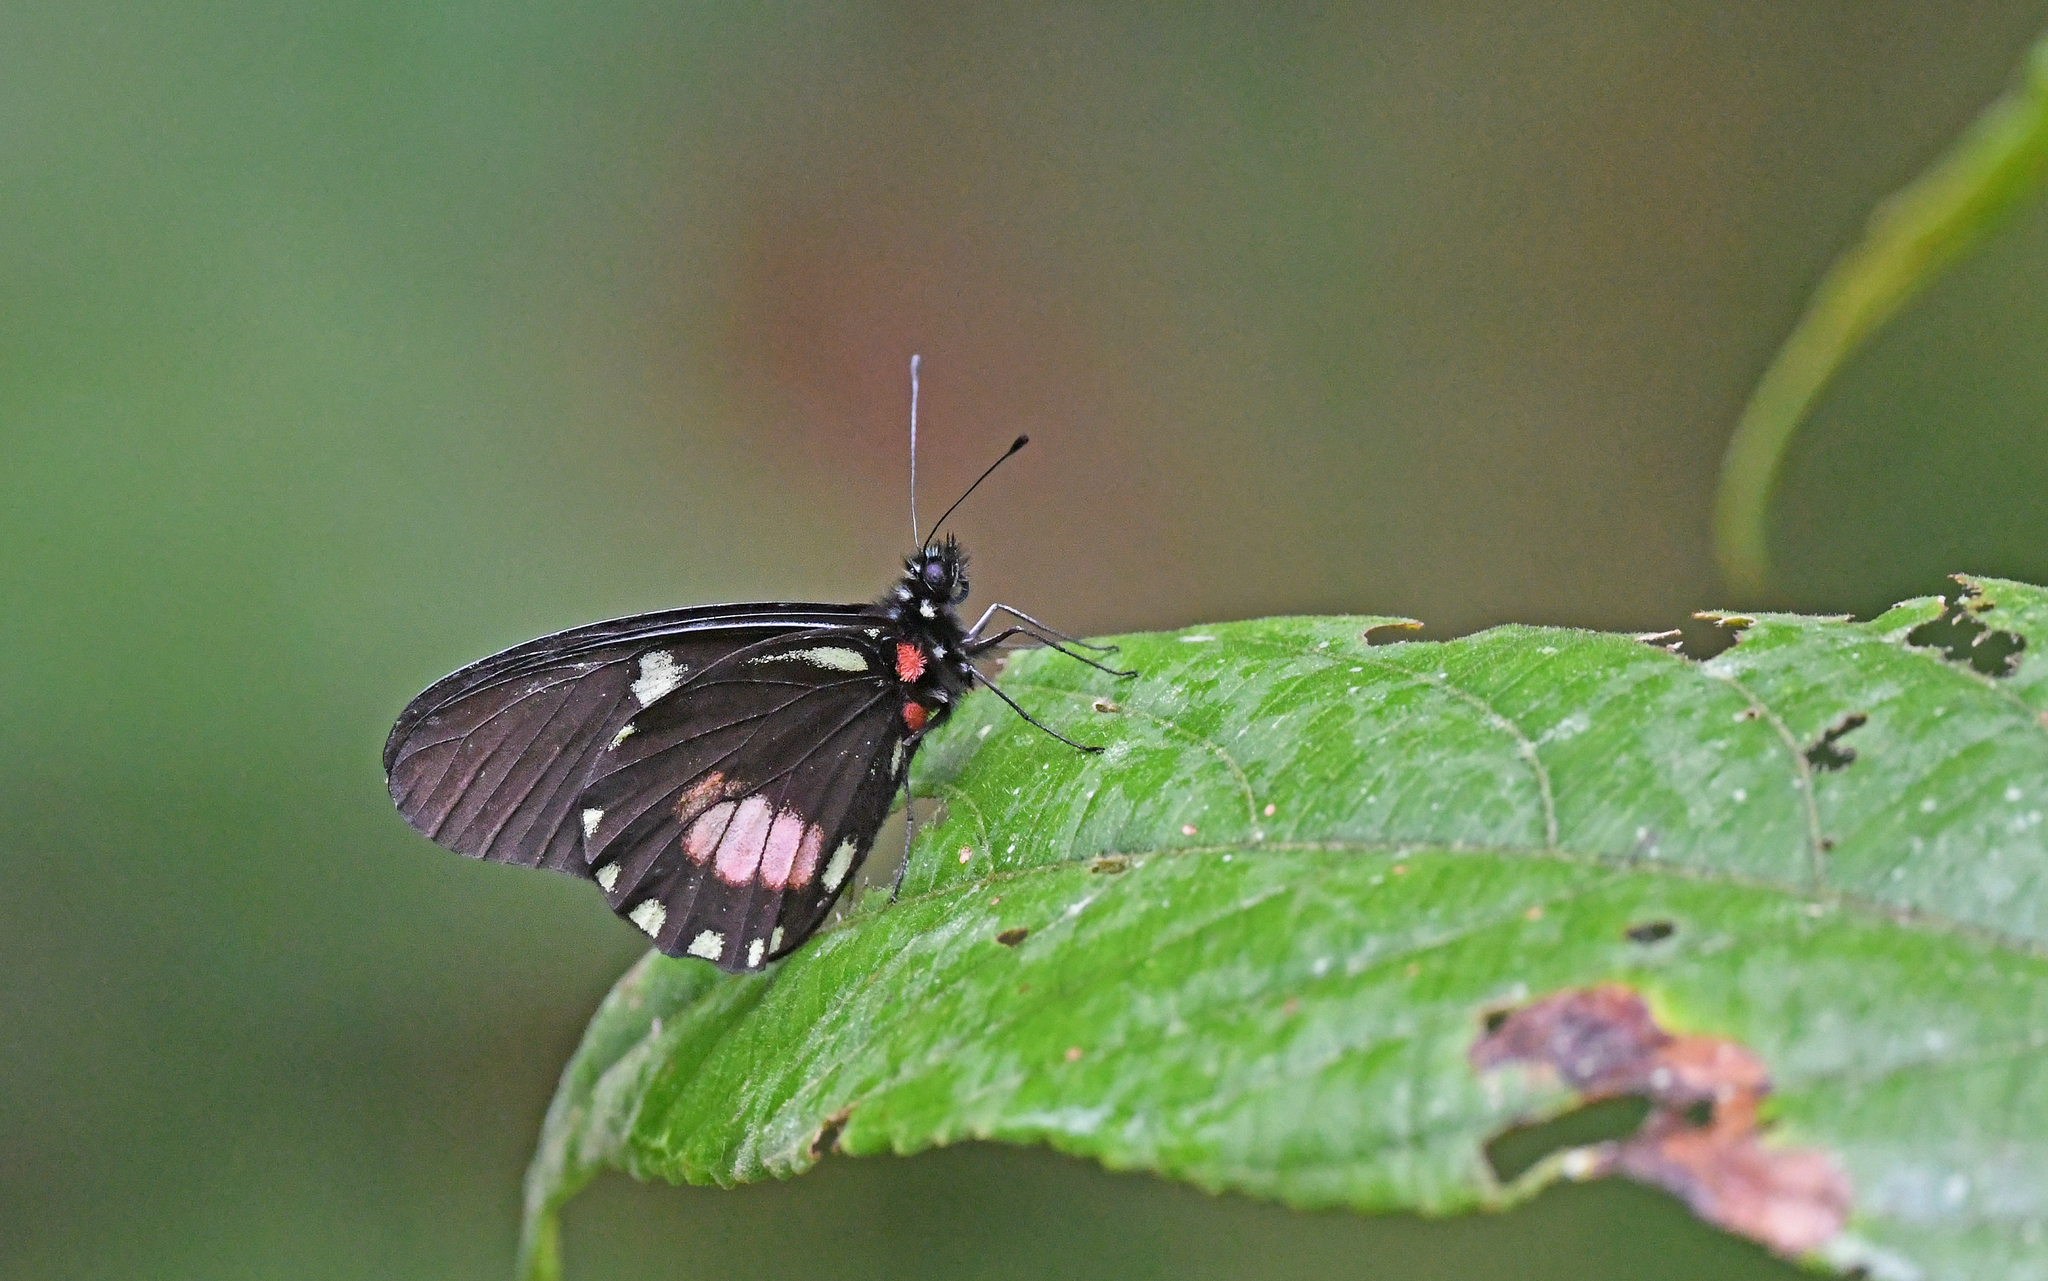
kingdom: Animalia
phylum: Arthropoda
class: Insecta
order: Lepidoptera
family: Pieridae
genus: Archonias
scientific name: Archonias brassolis
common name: Cattleheart white
